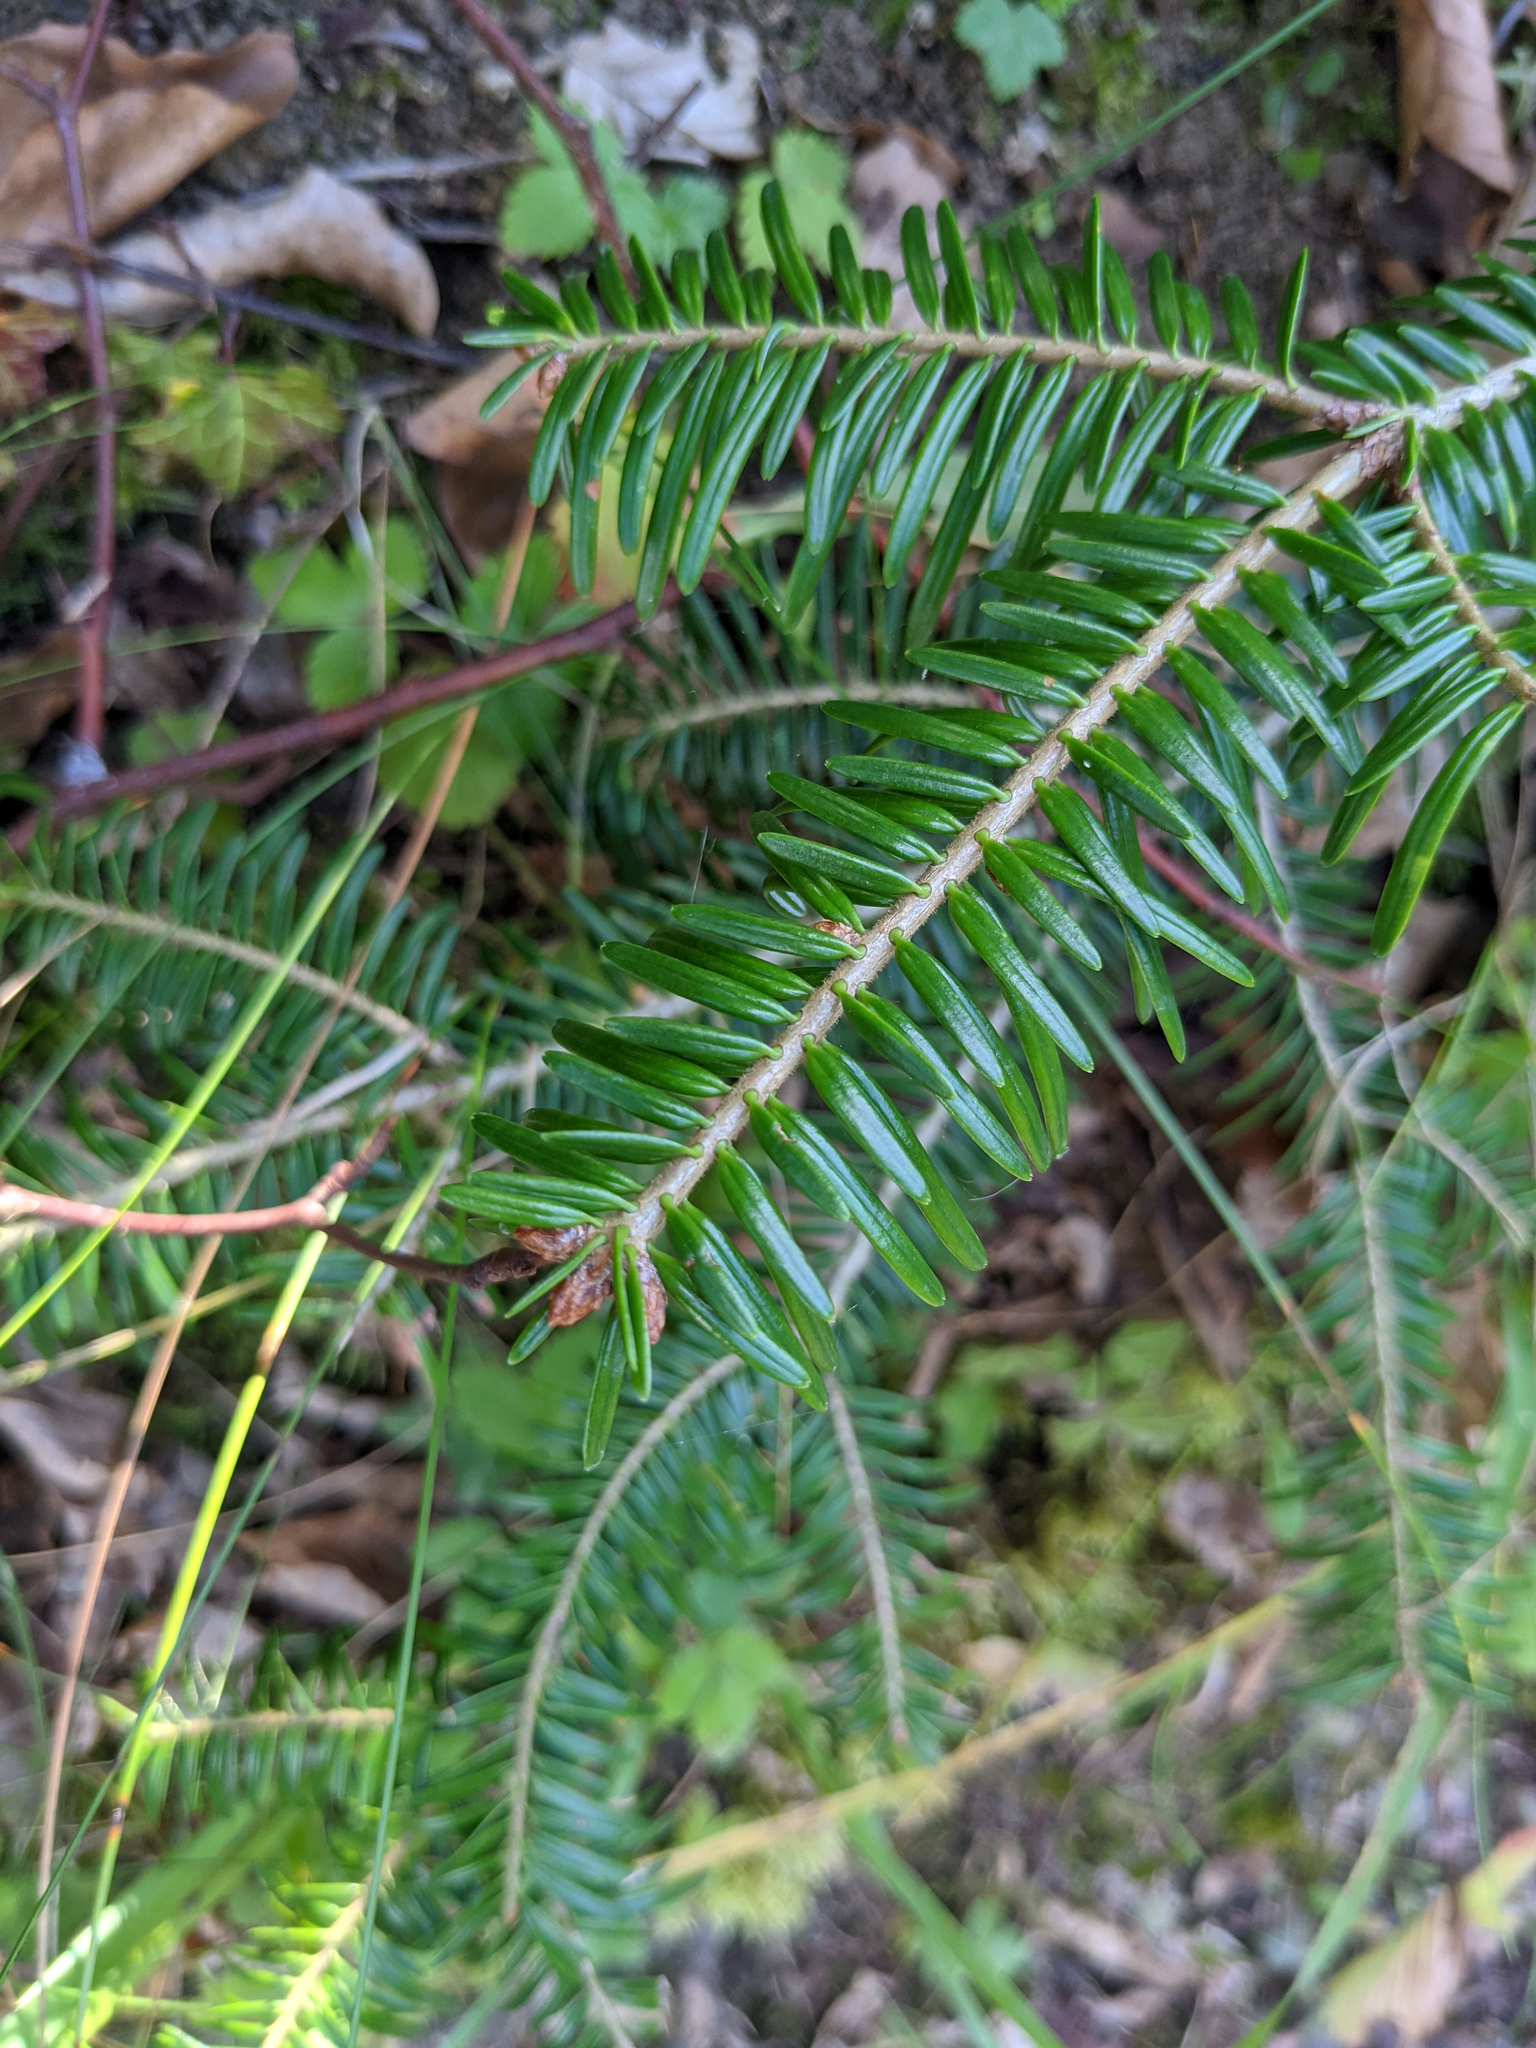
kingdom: Plantae
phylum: Tracheophyta
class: Pinopsida
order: Pinales
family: Pinaceae
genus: Abies
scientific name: Abies alba
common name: Silver fir
